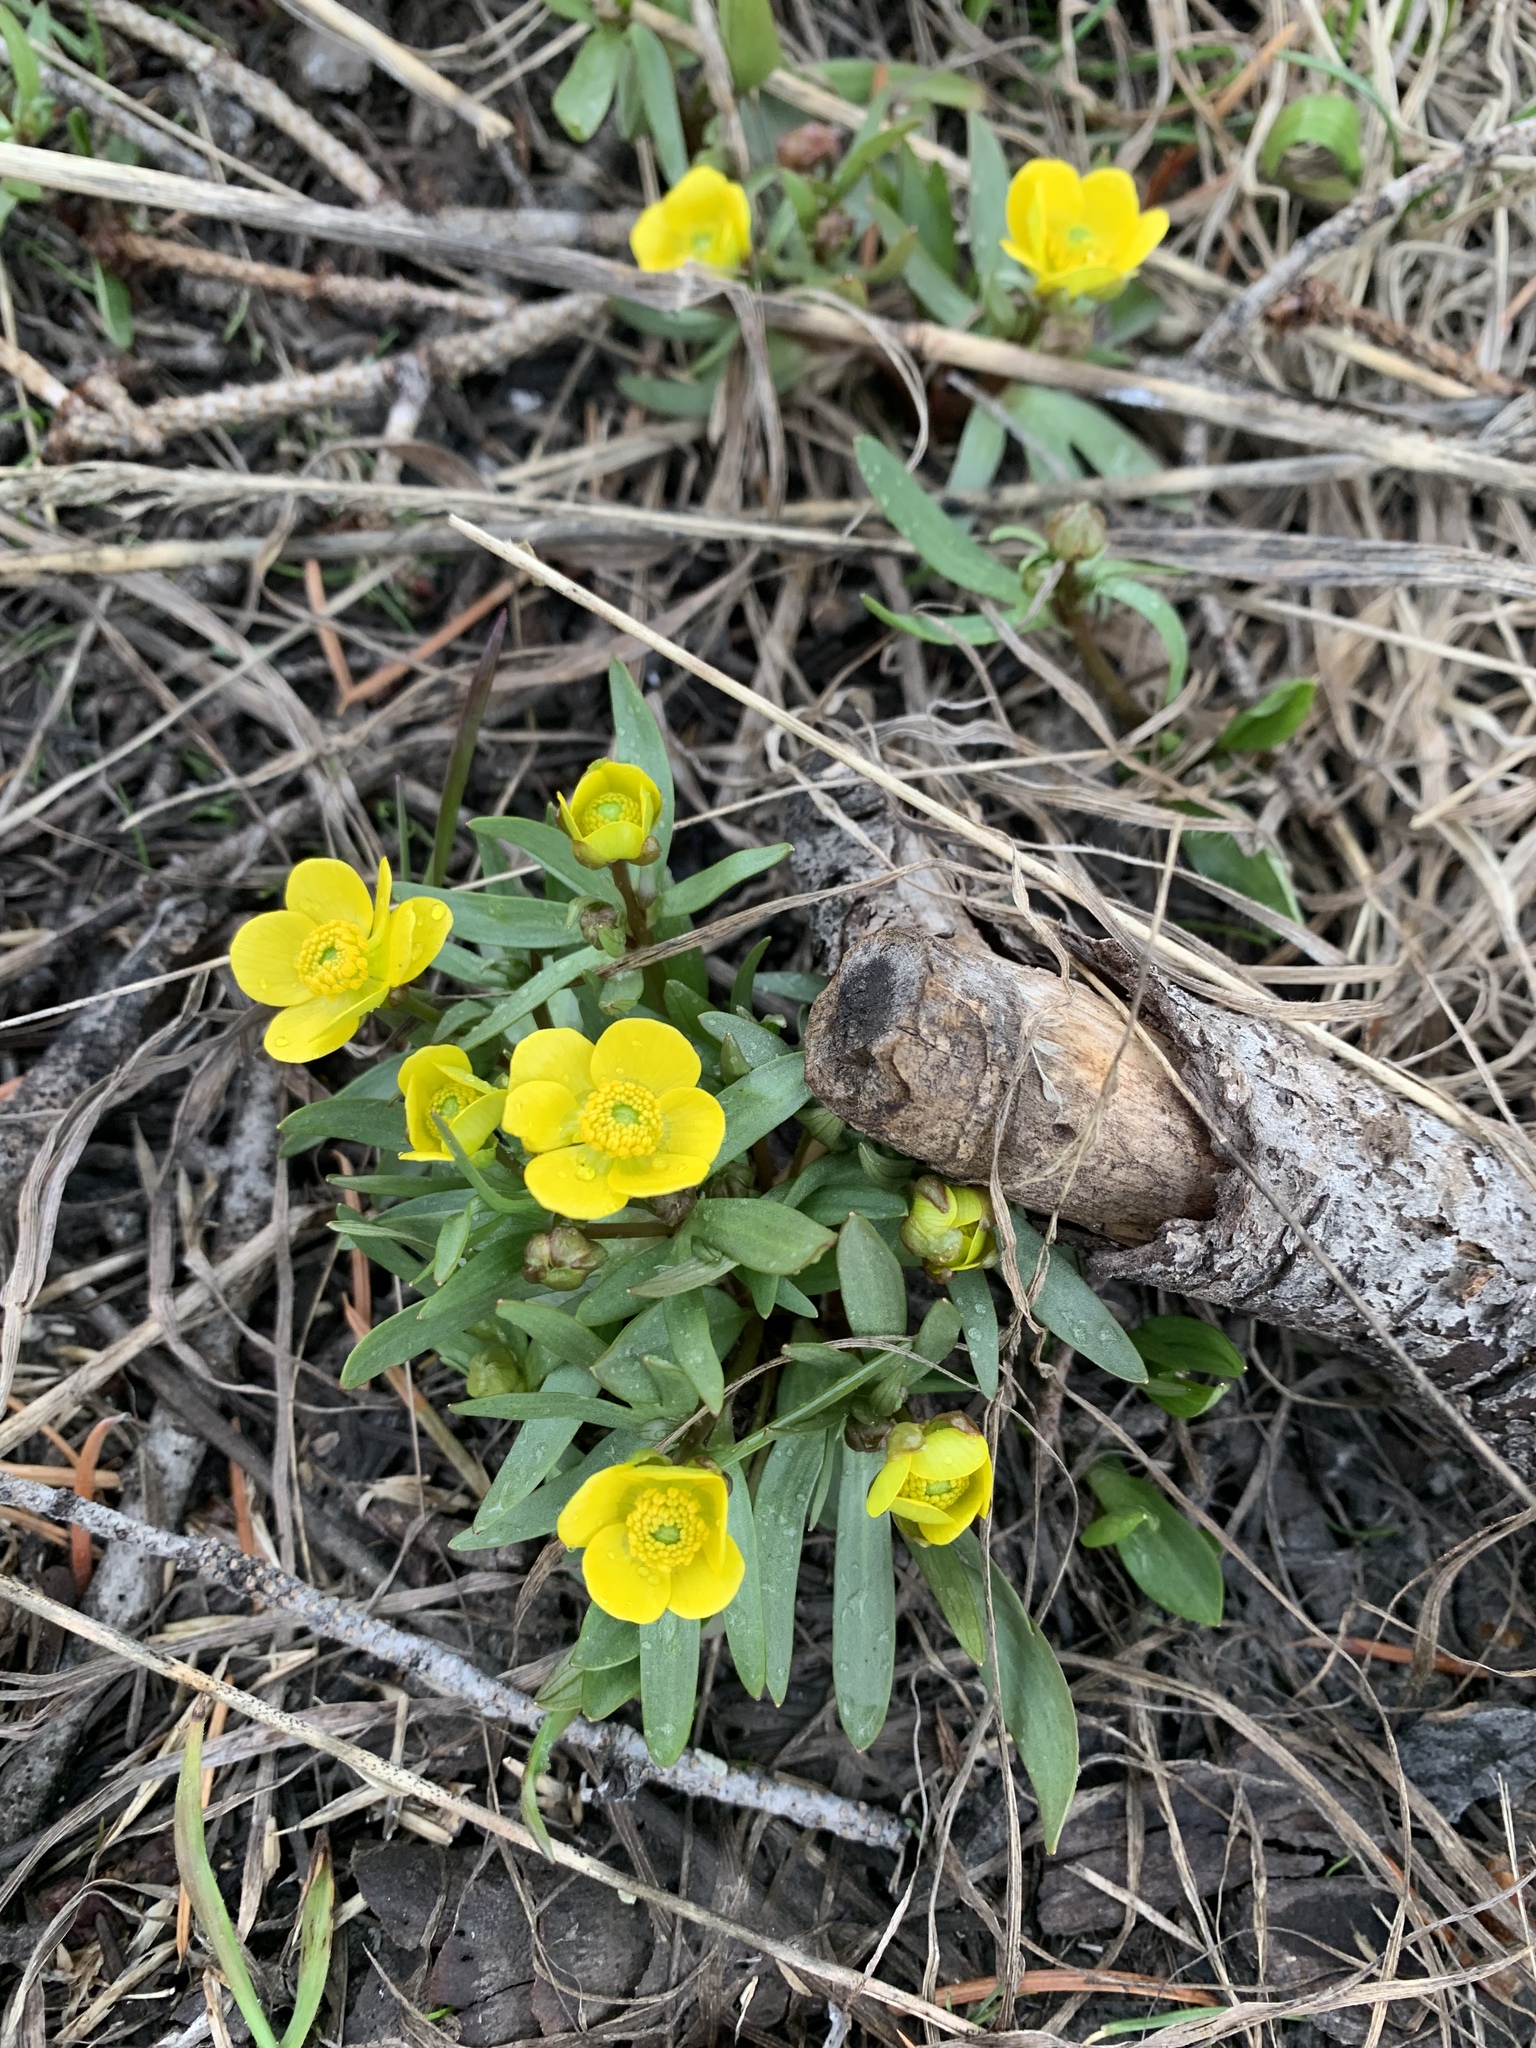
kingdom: Plantae
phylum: Tracheophyta
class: Magnoliopsida
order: Ranunculales
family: Ranunculaceae
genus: Ranunculus
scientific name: Ranunculus glaberrimus
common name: Sagebrush buttercup
